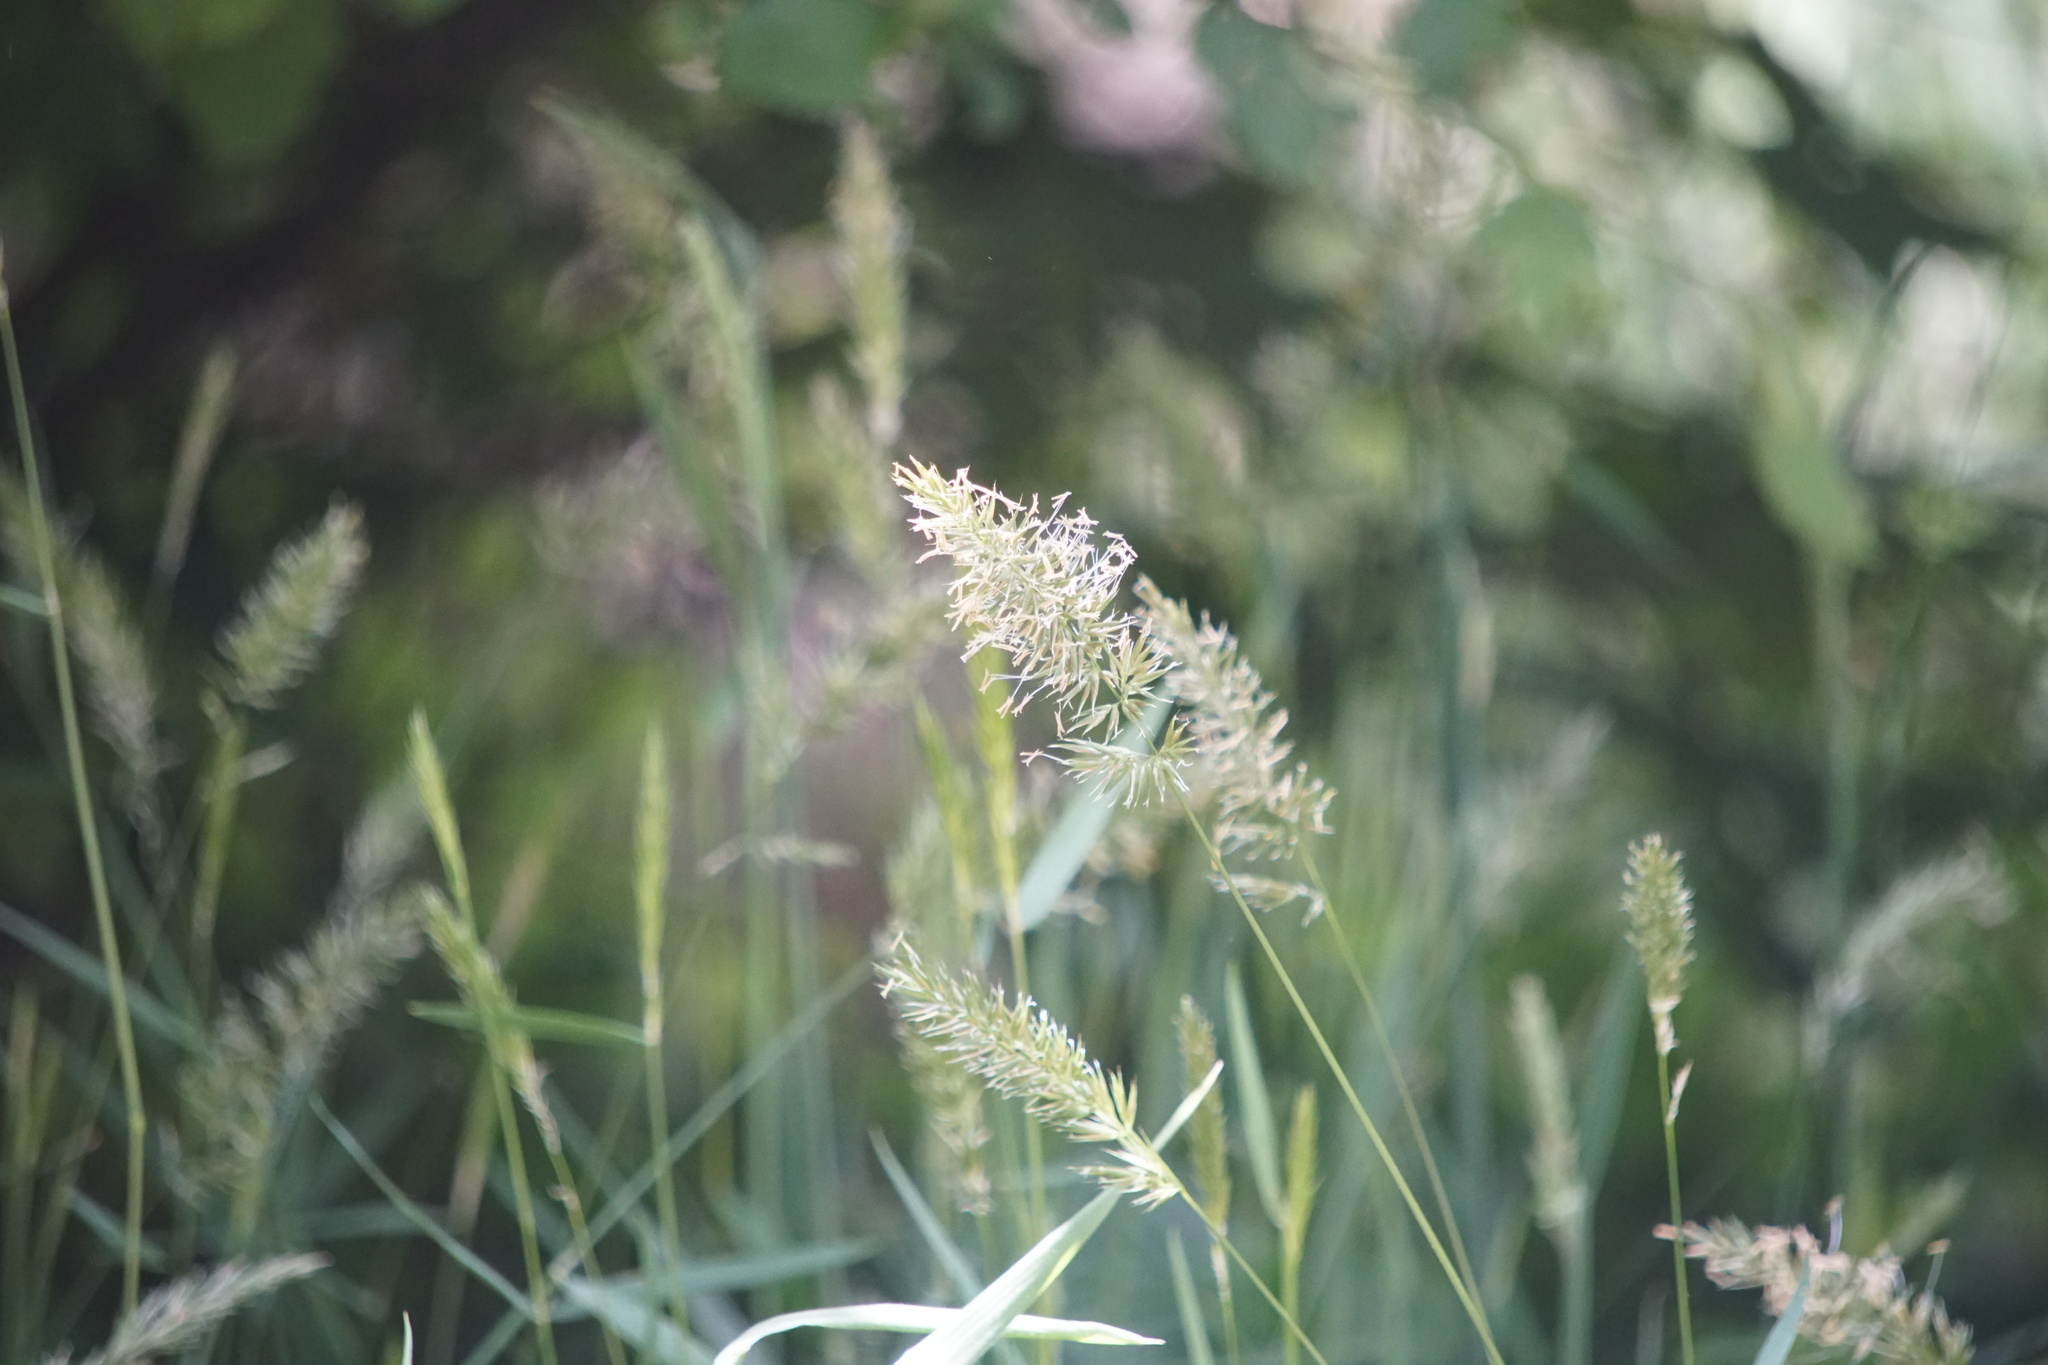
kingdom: Plantae
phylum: Tracheophyta
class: Liliopsida
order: Poales
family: Poaceae
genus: Anthoxanthum
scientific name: Anthoxanthum odoratum
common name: Sweet vernalgrass
